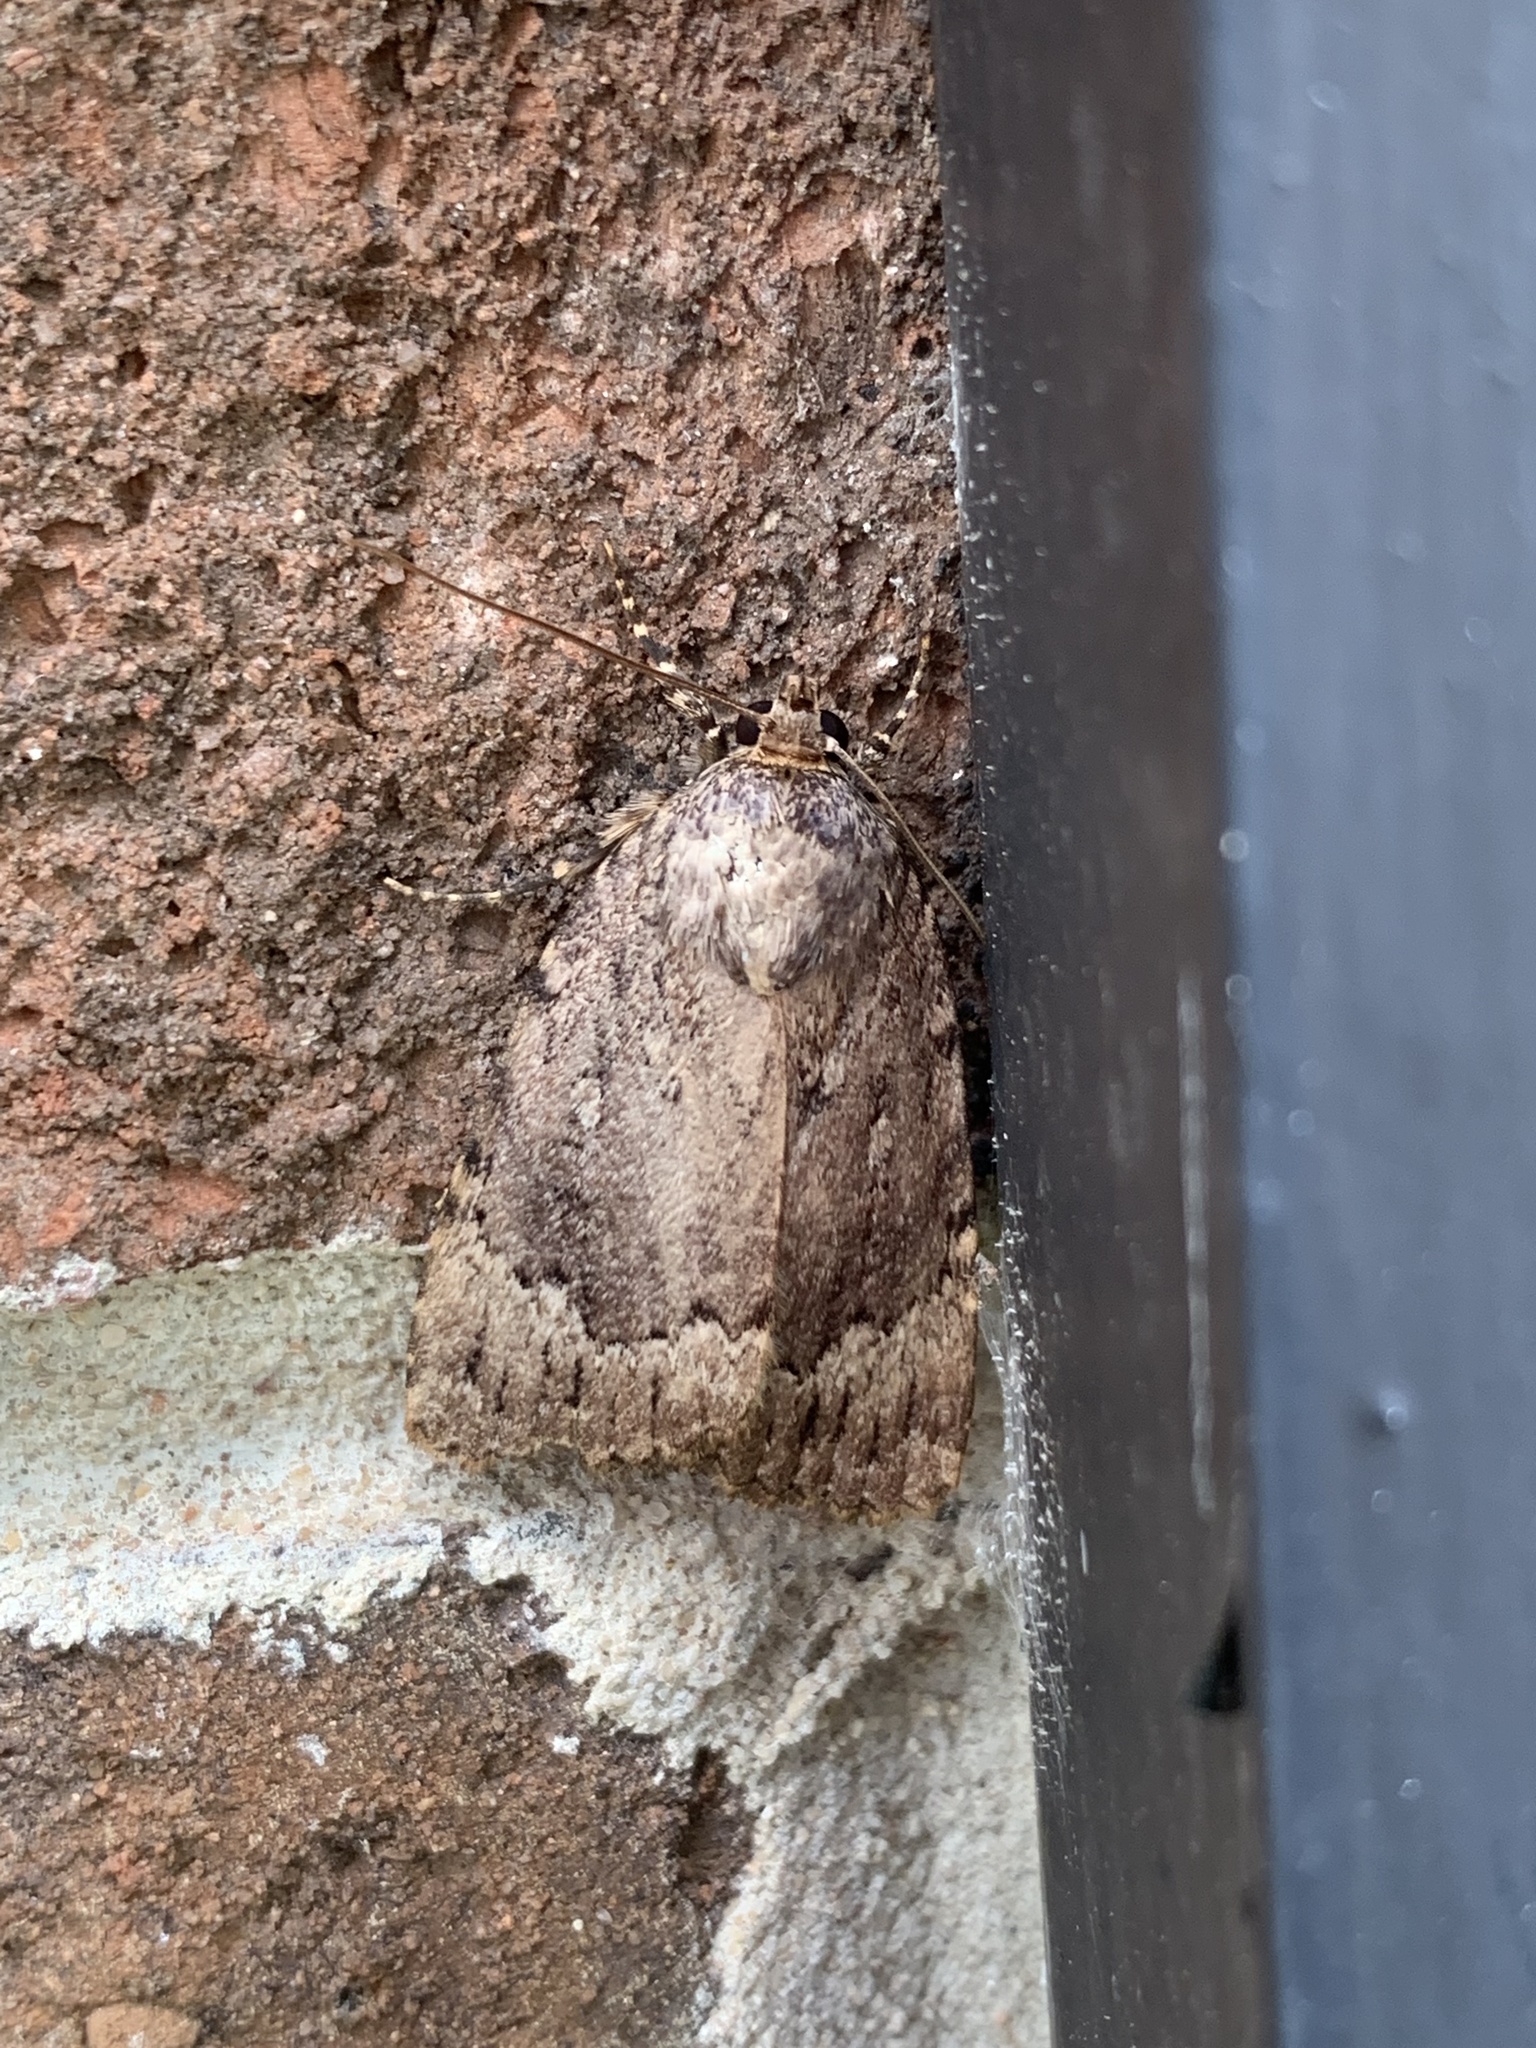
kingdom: Animalia
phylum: Arthropoda
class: Insecta
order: Lepidoptera
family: Noctuidae
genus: Amphipyra
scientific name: Amphipyra pyramidoides
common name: American copper underwing
